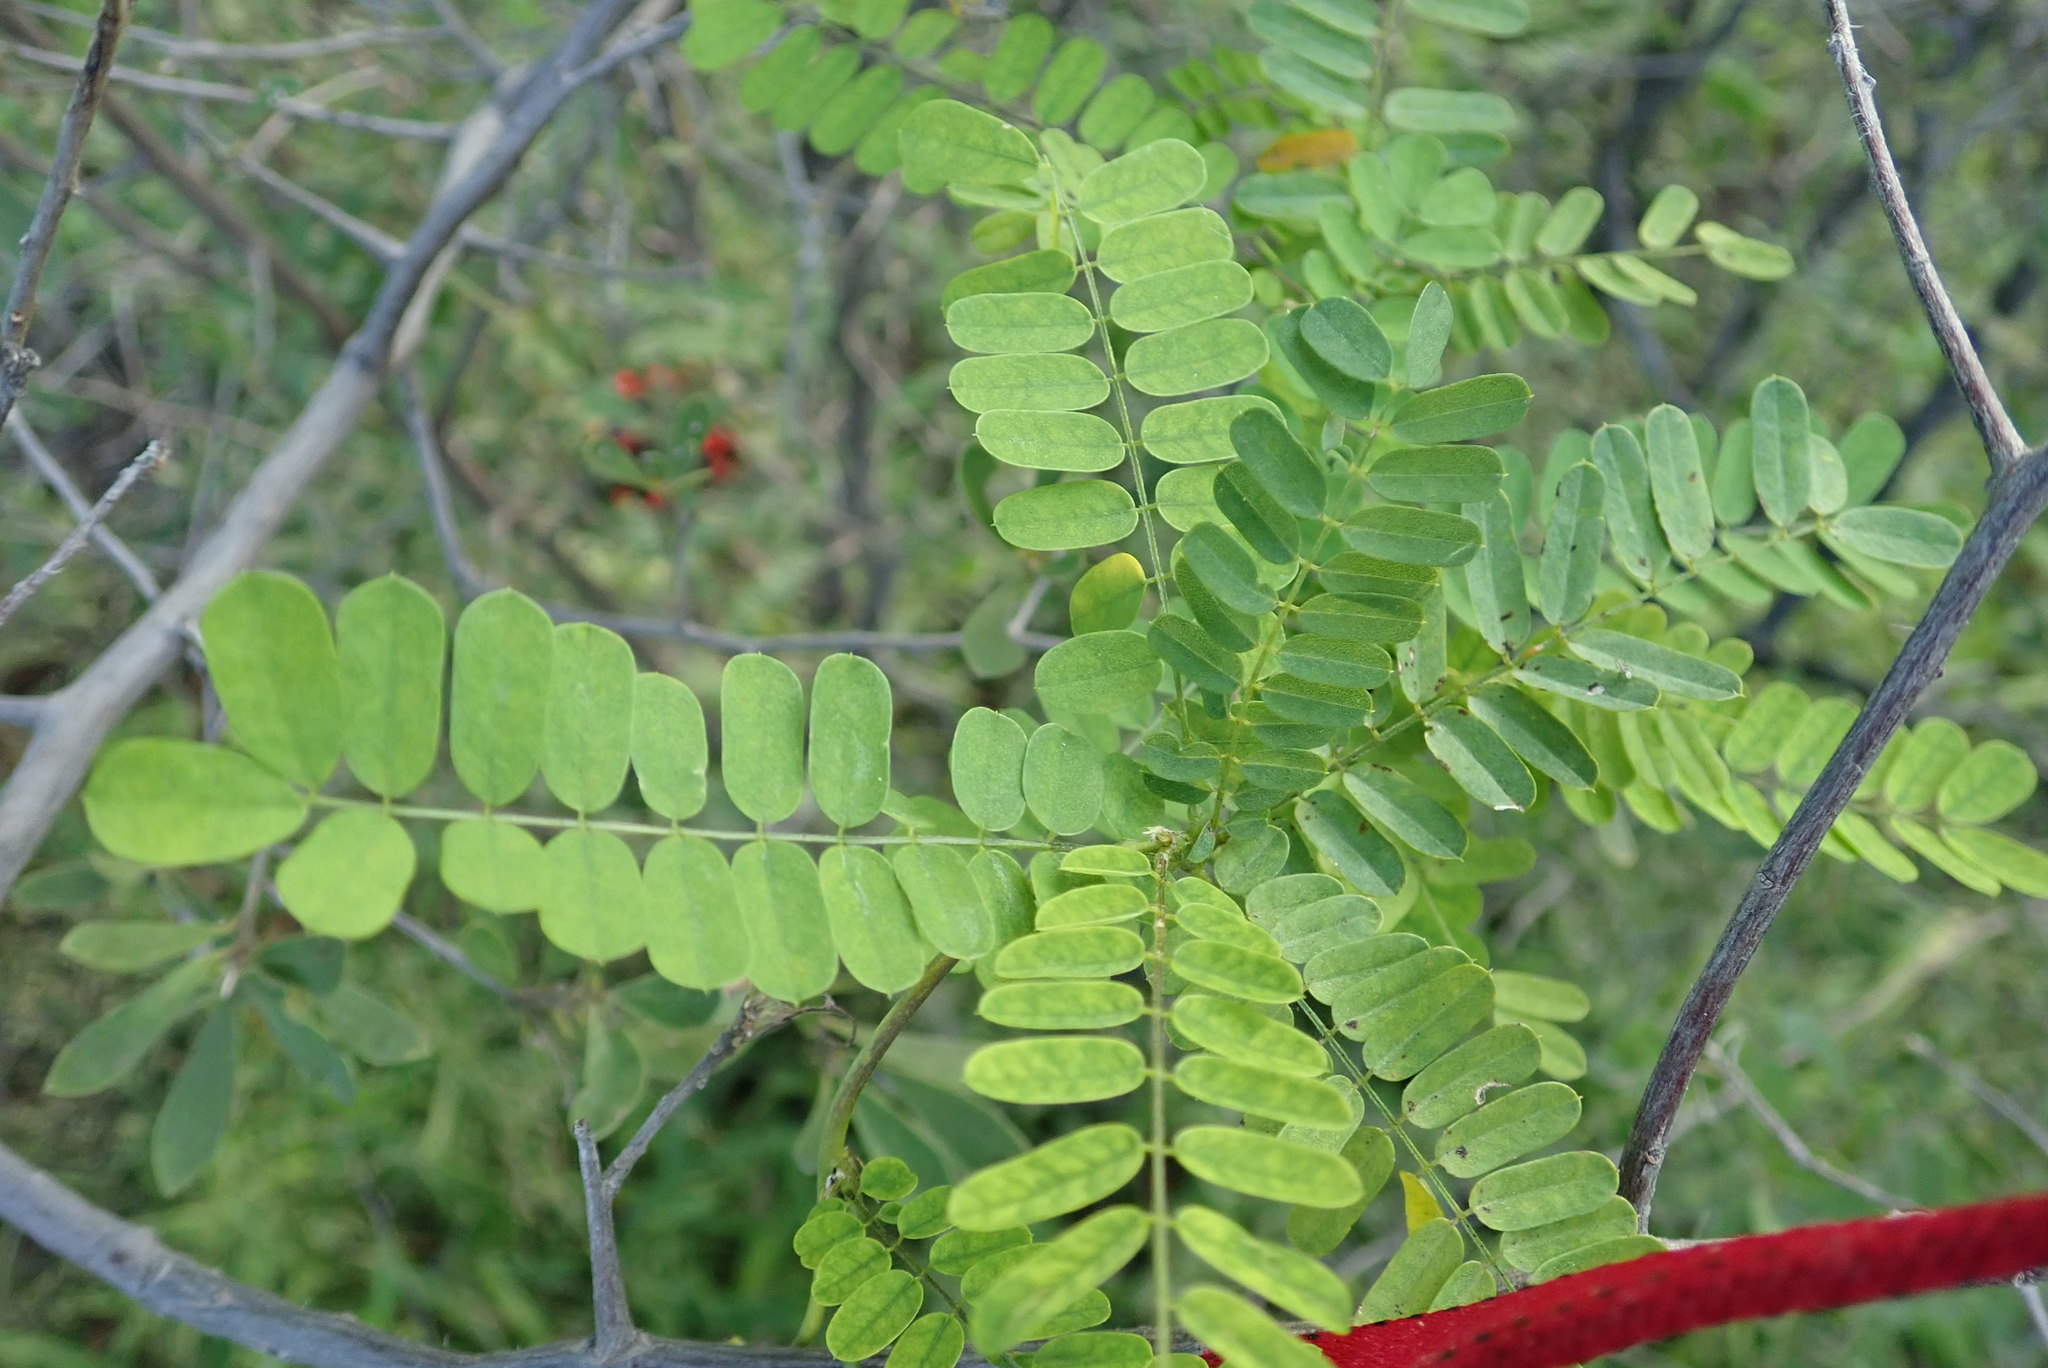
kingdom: Plantae
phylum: Tracheophyta
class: Magnoliopsida
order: Fabales
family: Fabaceae
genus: Abrus
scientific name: Abrus precatorius
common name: Rosarypea
